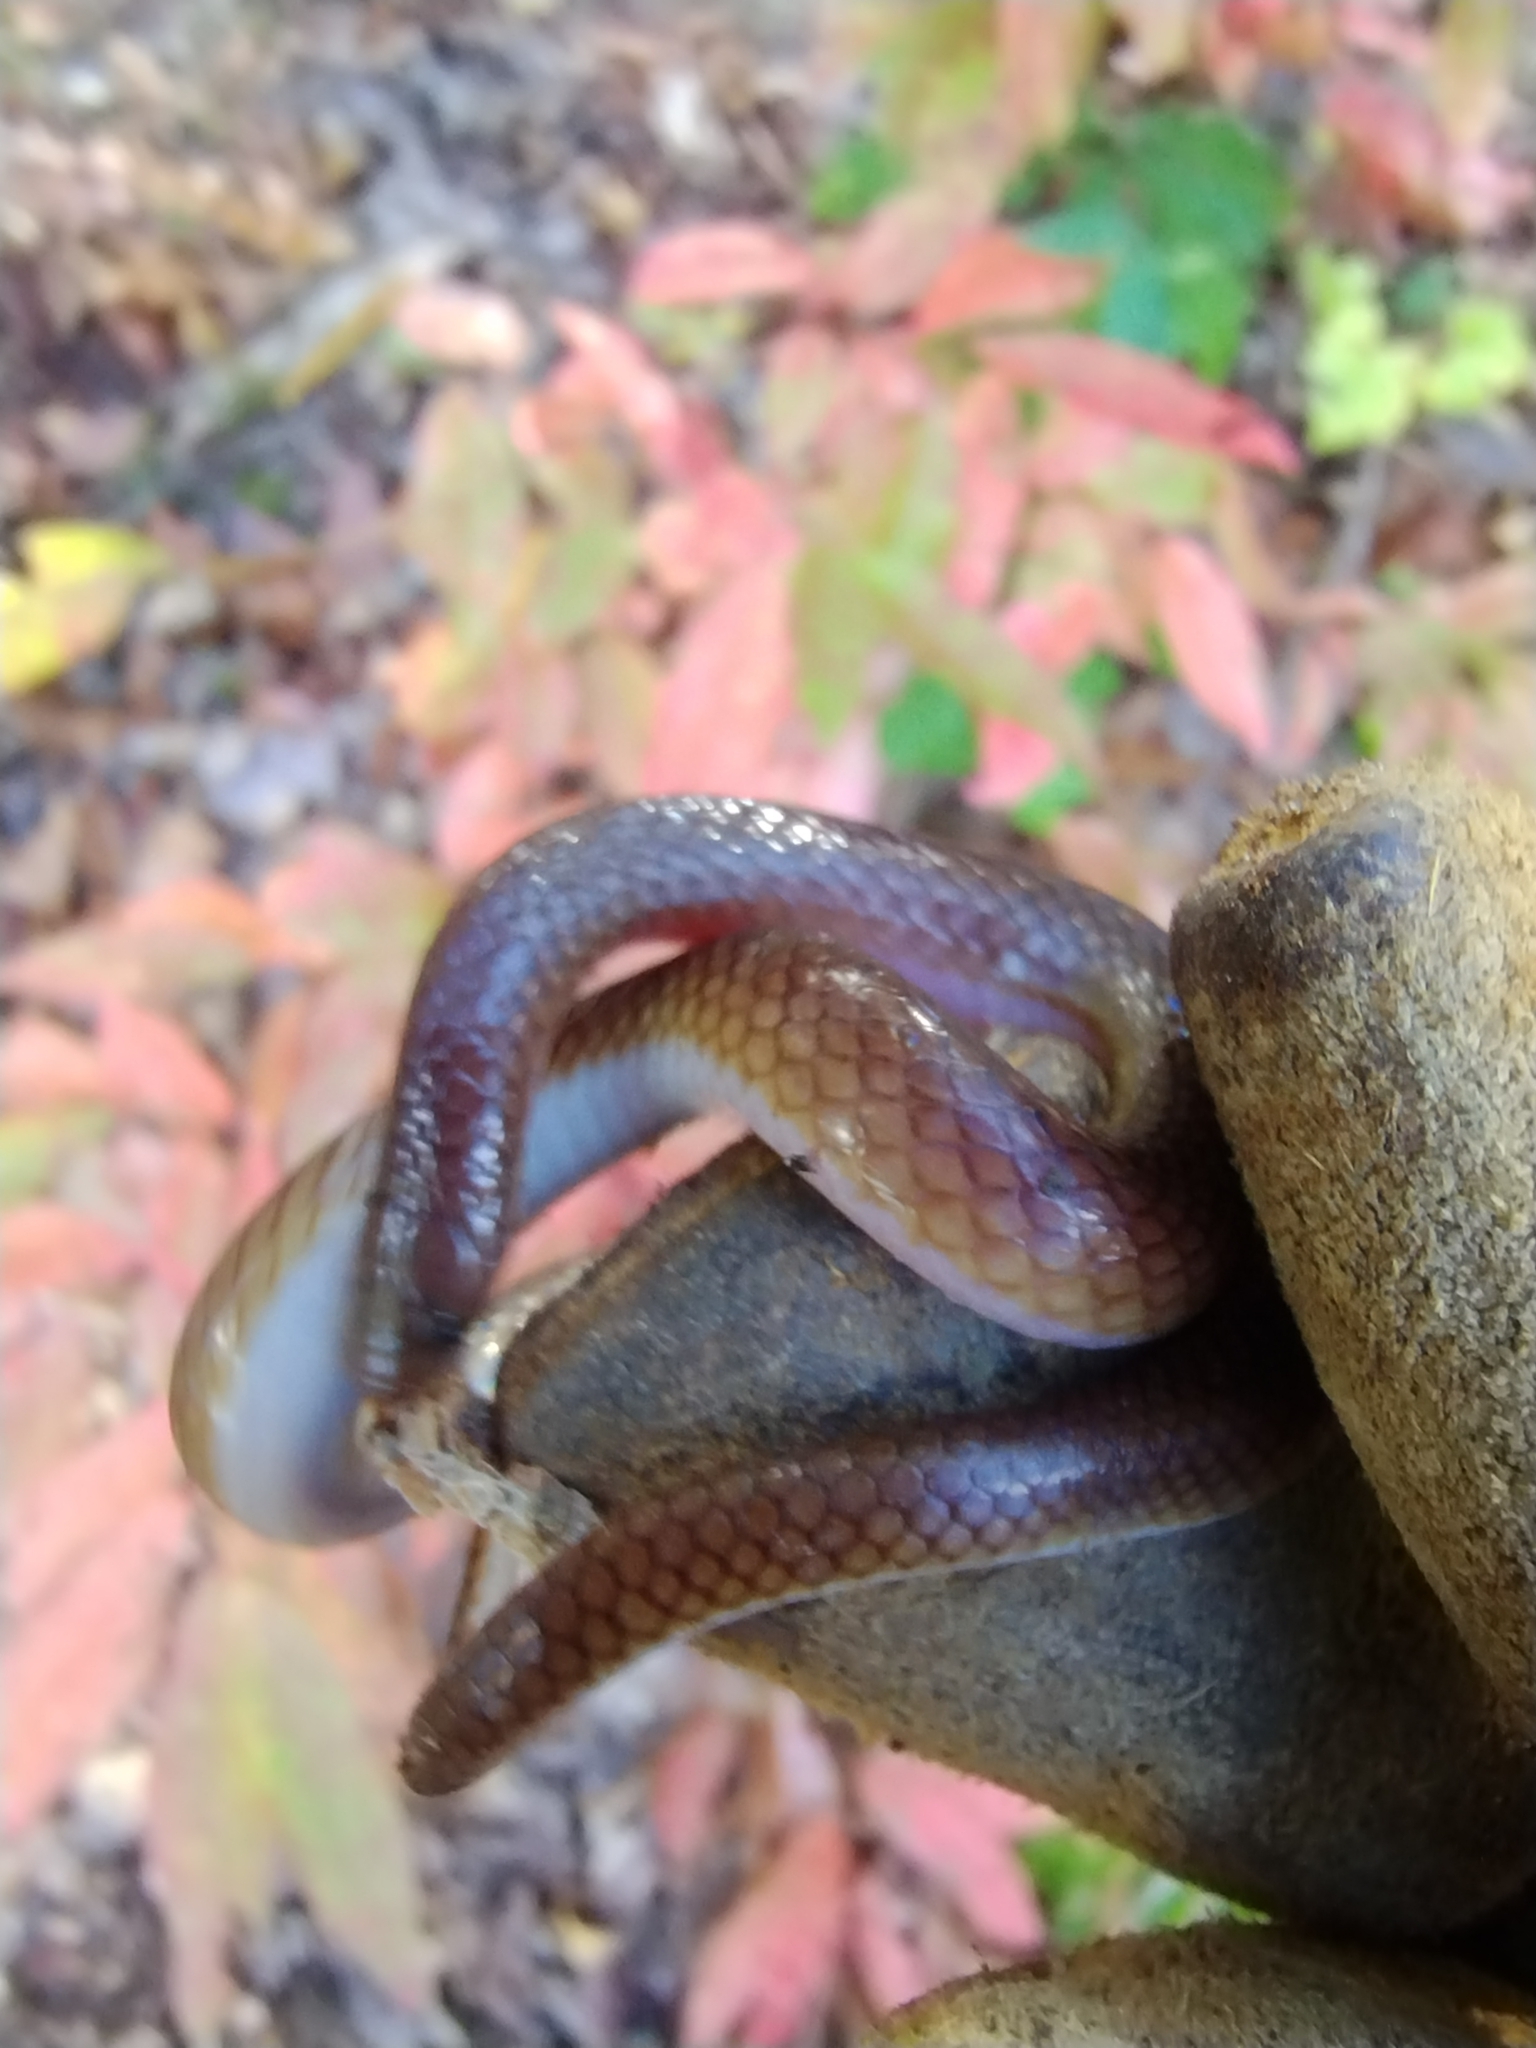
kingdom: Animalia
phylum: Chordata
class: Squamata
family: Colubridae
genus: Carphophis
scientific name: Carphophis amoenus
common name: Eastern worm snake
